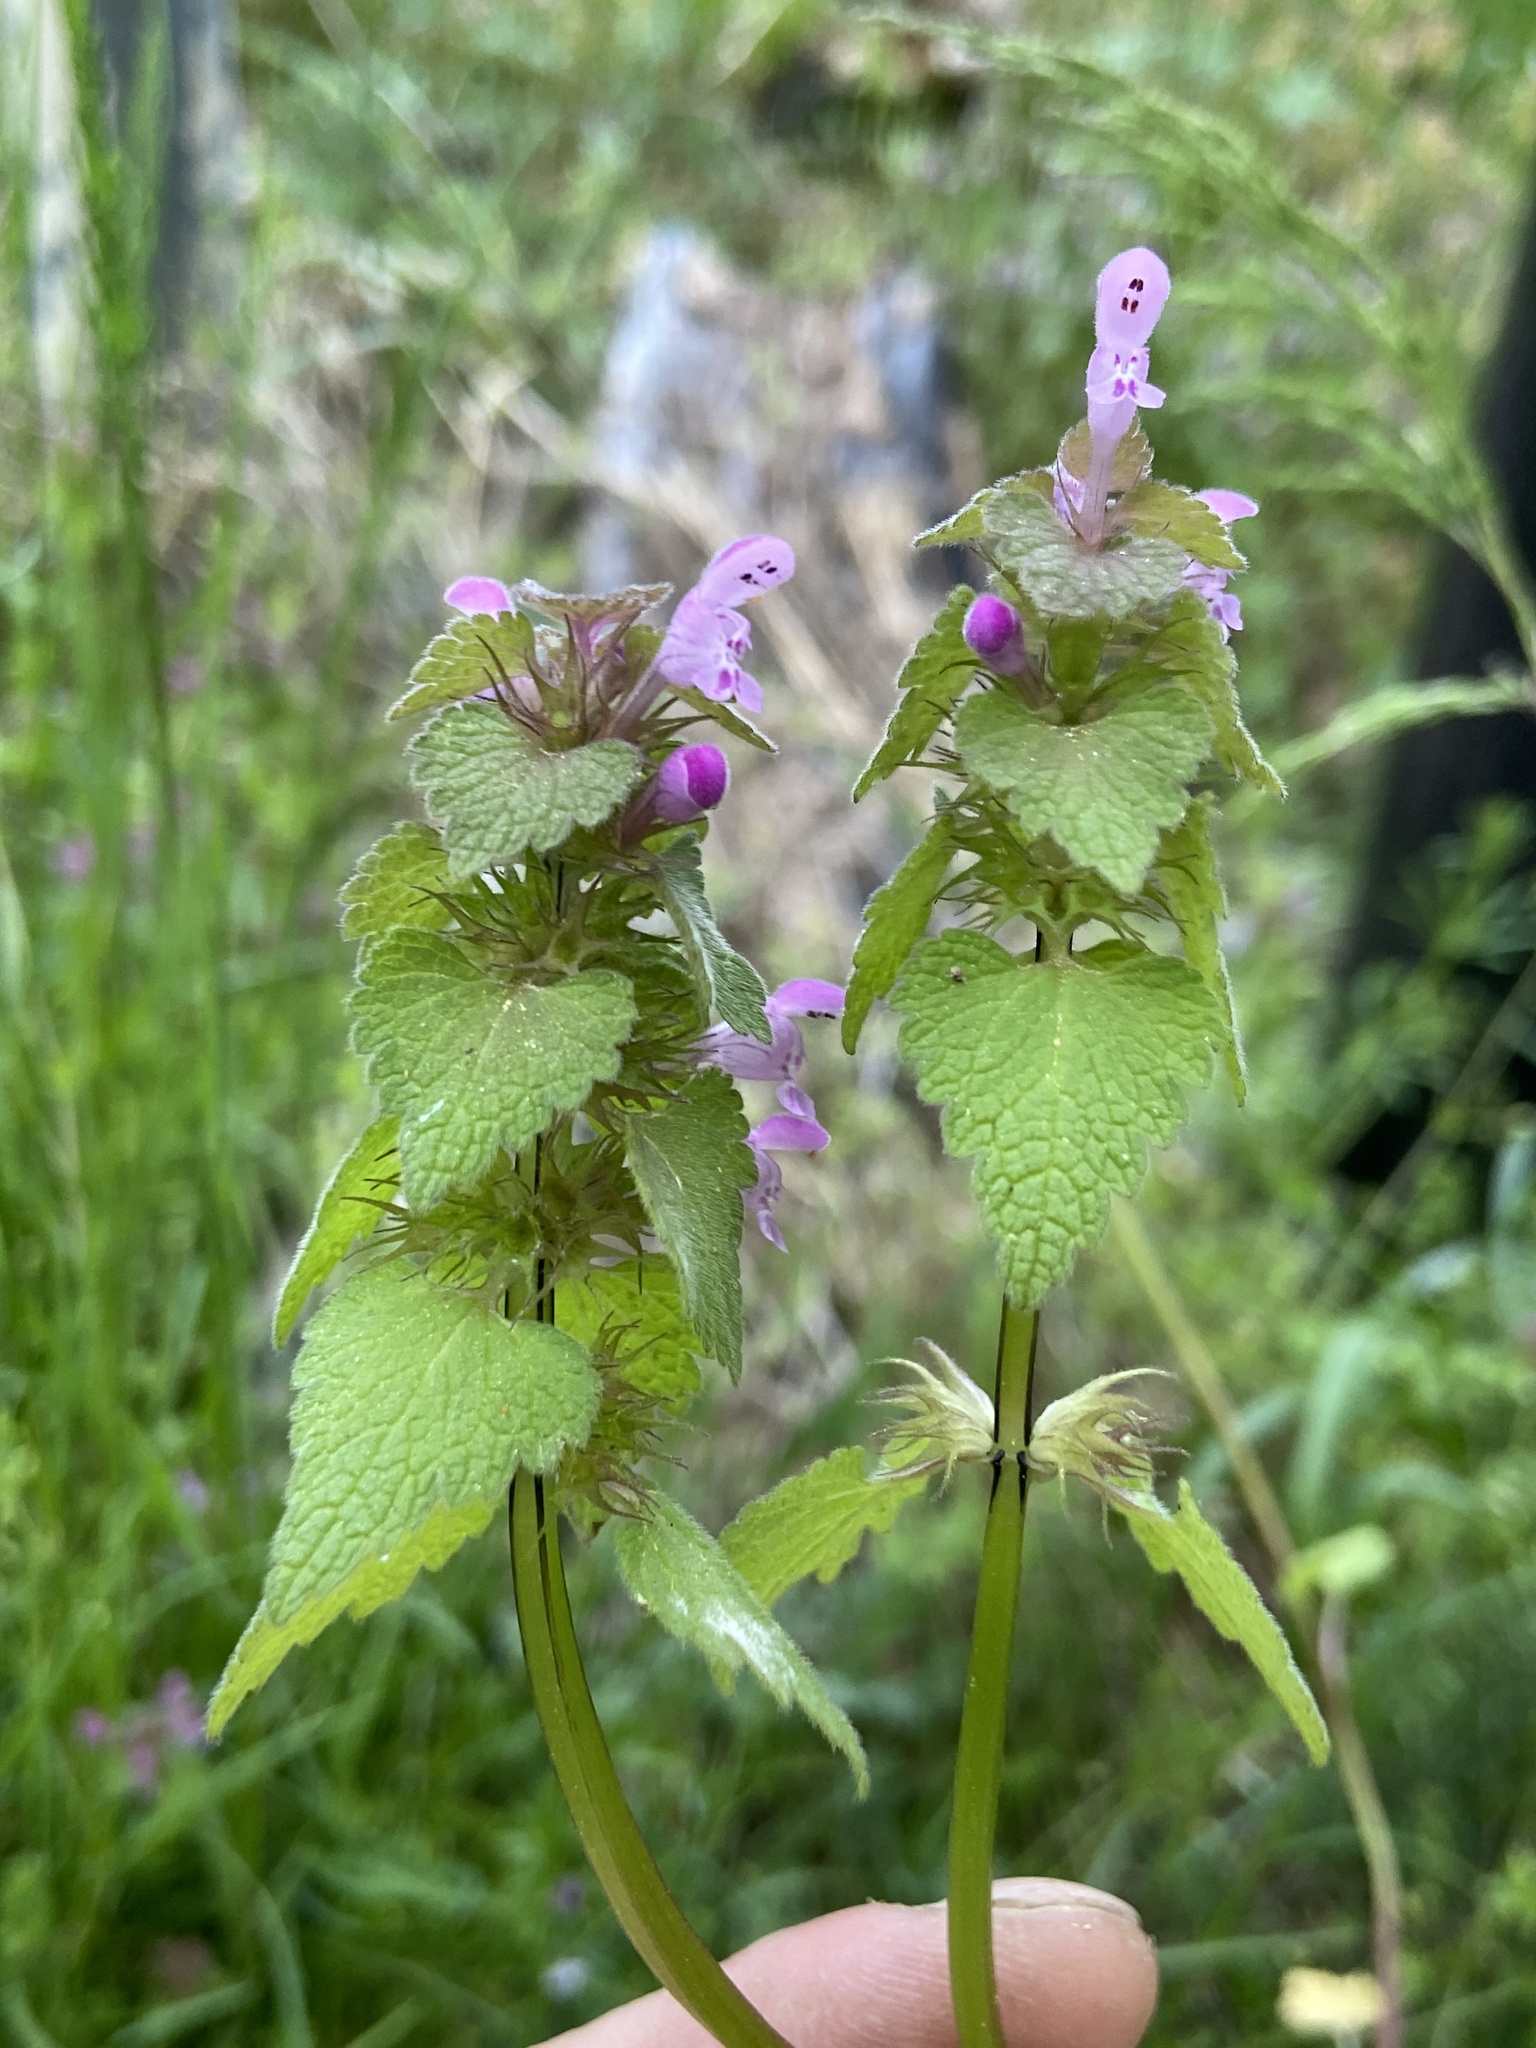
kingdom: Plantae
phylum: Tracheophyta
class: Magnoliopsida
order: Lamiales
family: Lamiaceae
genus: Lamium
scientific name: Lamium purpureum
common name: Red dead-nettle
